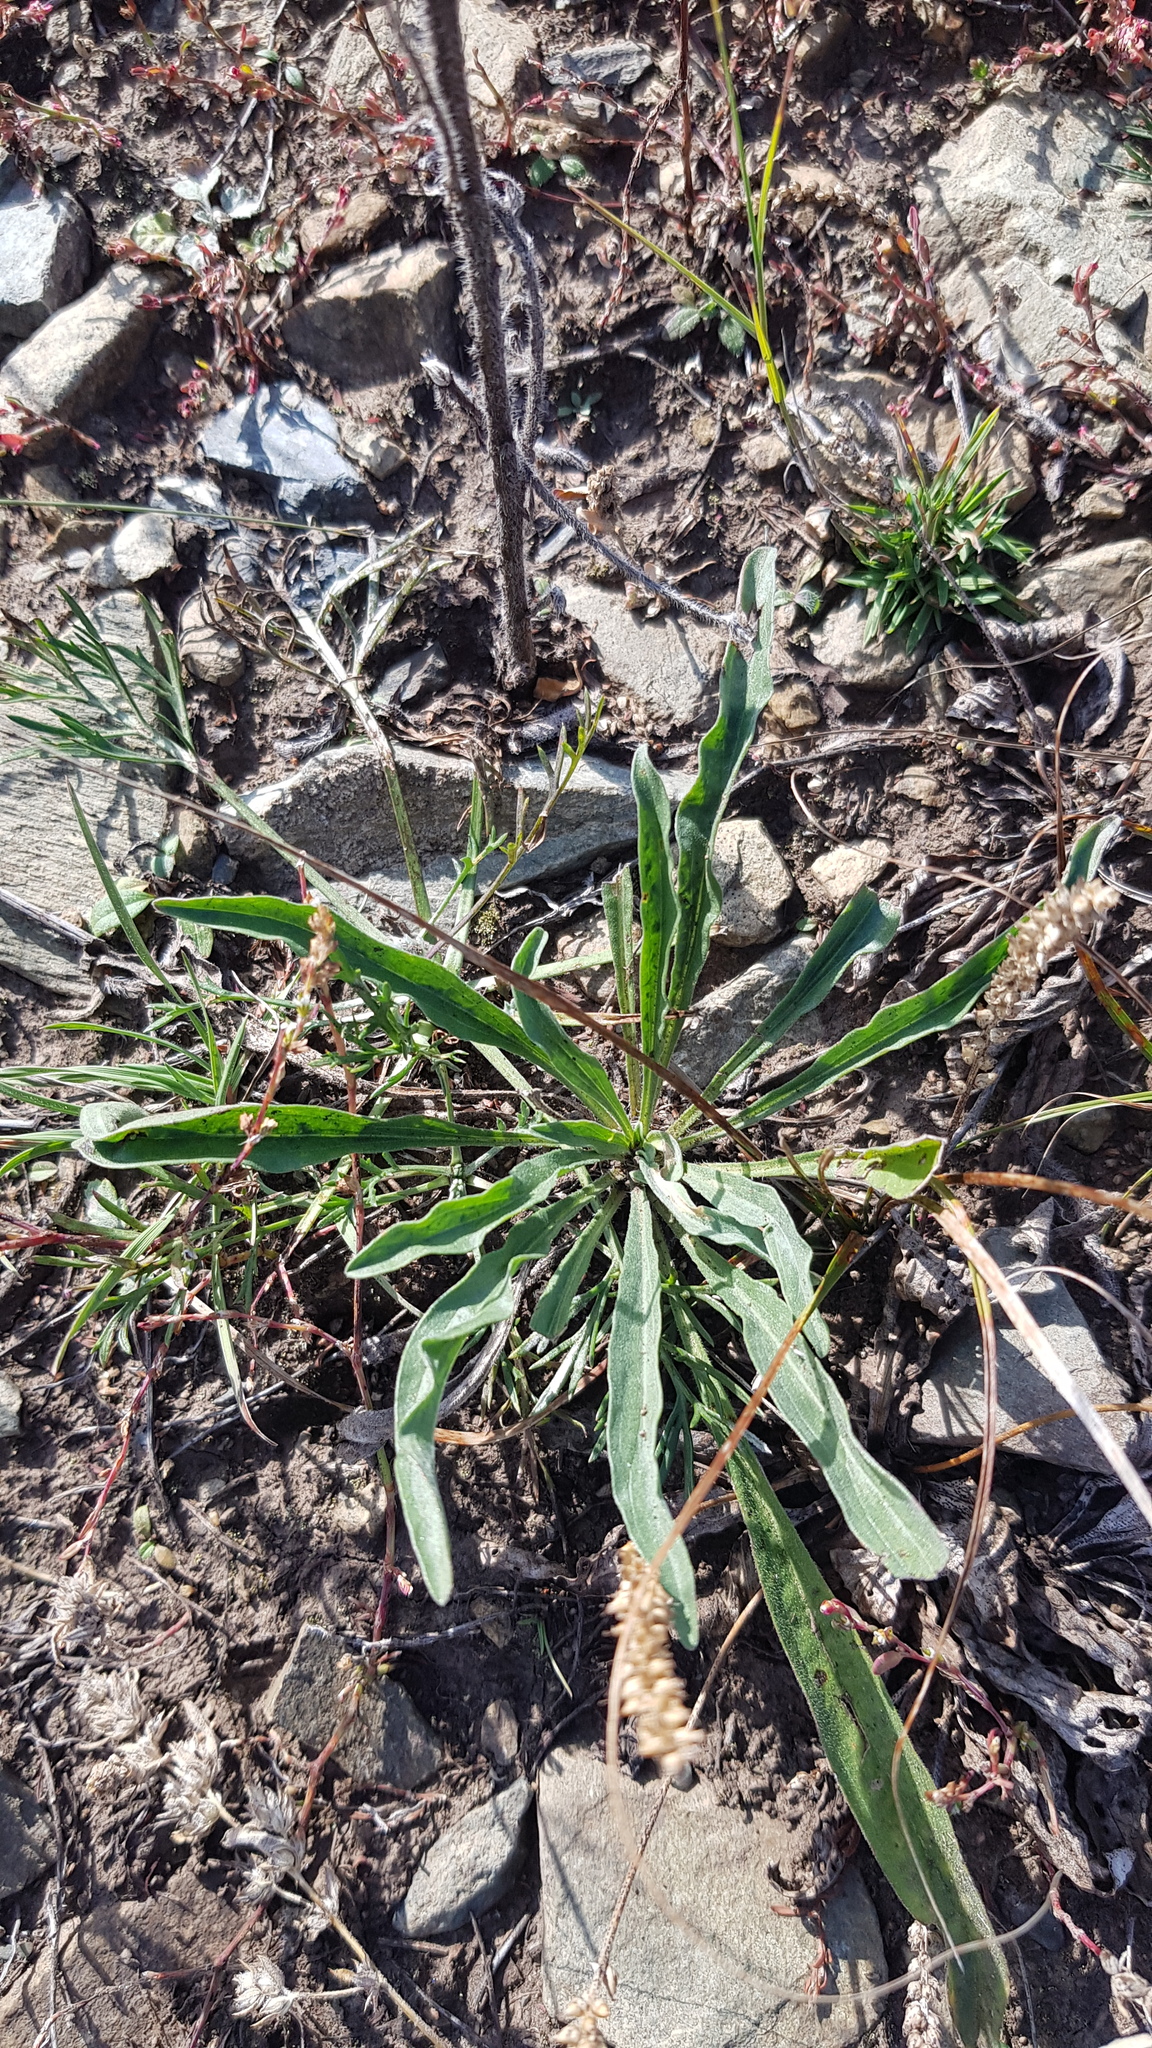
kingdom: Plantae
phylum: Tracheophyta
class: Magnoliopsida
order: Lamiales
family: Plantaginaceae
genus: Plantago
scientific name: Plantago depressa
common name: Depressed plantain
